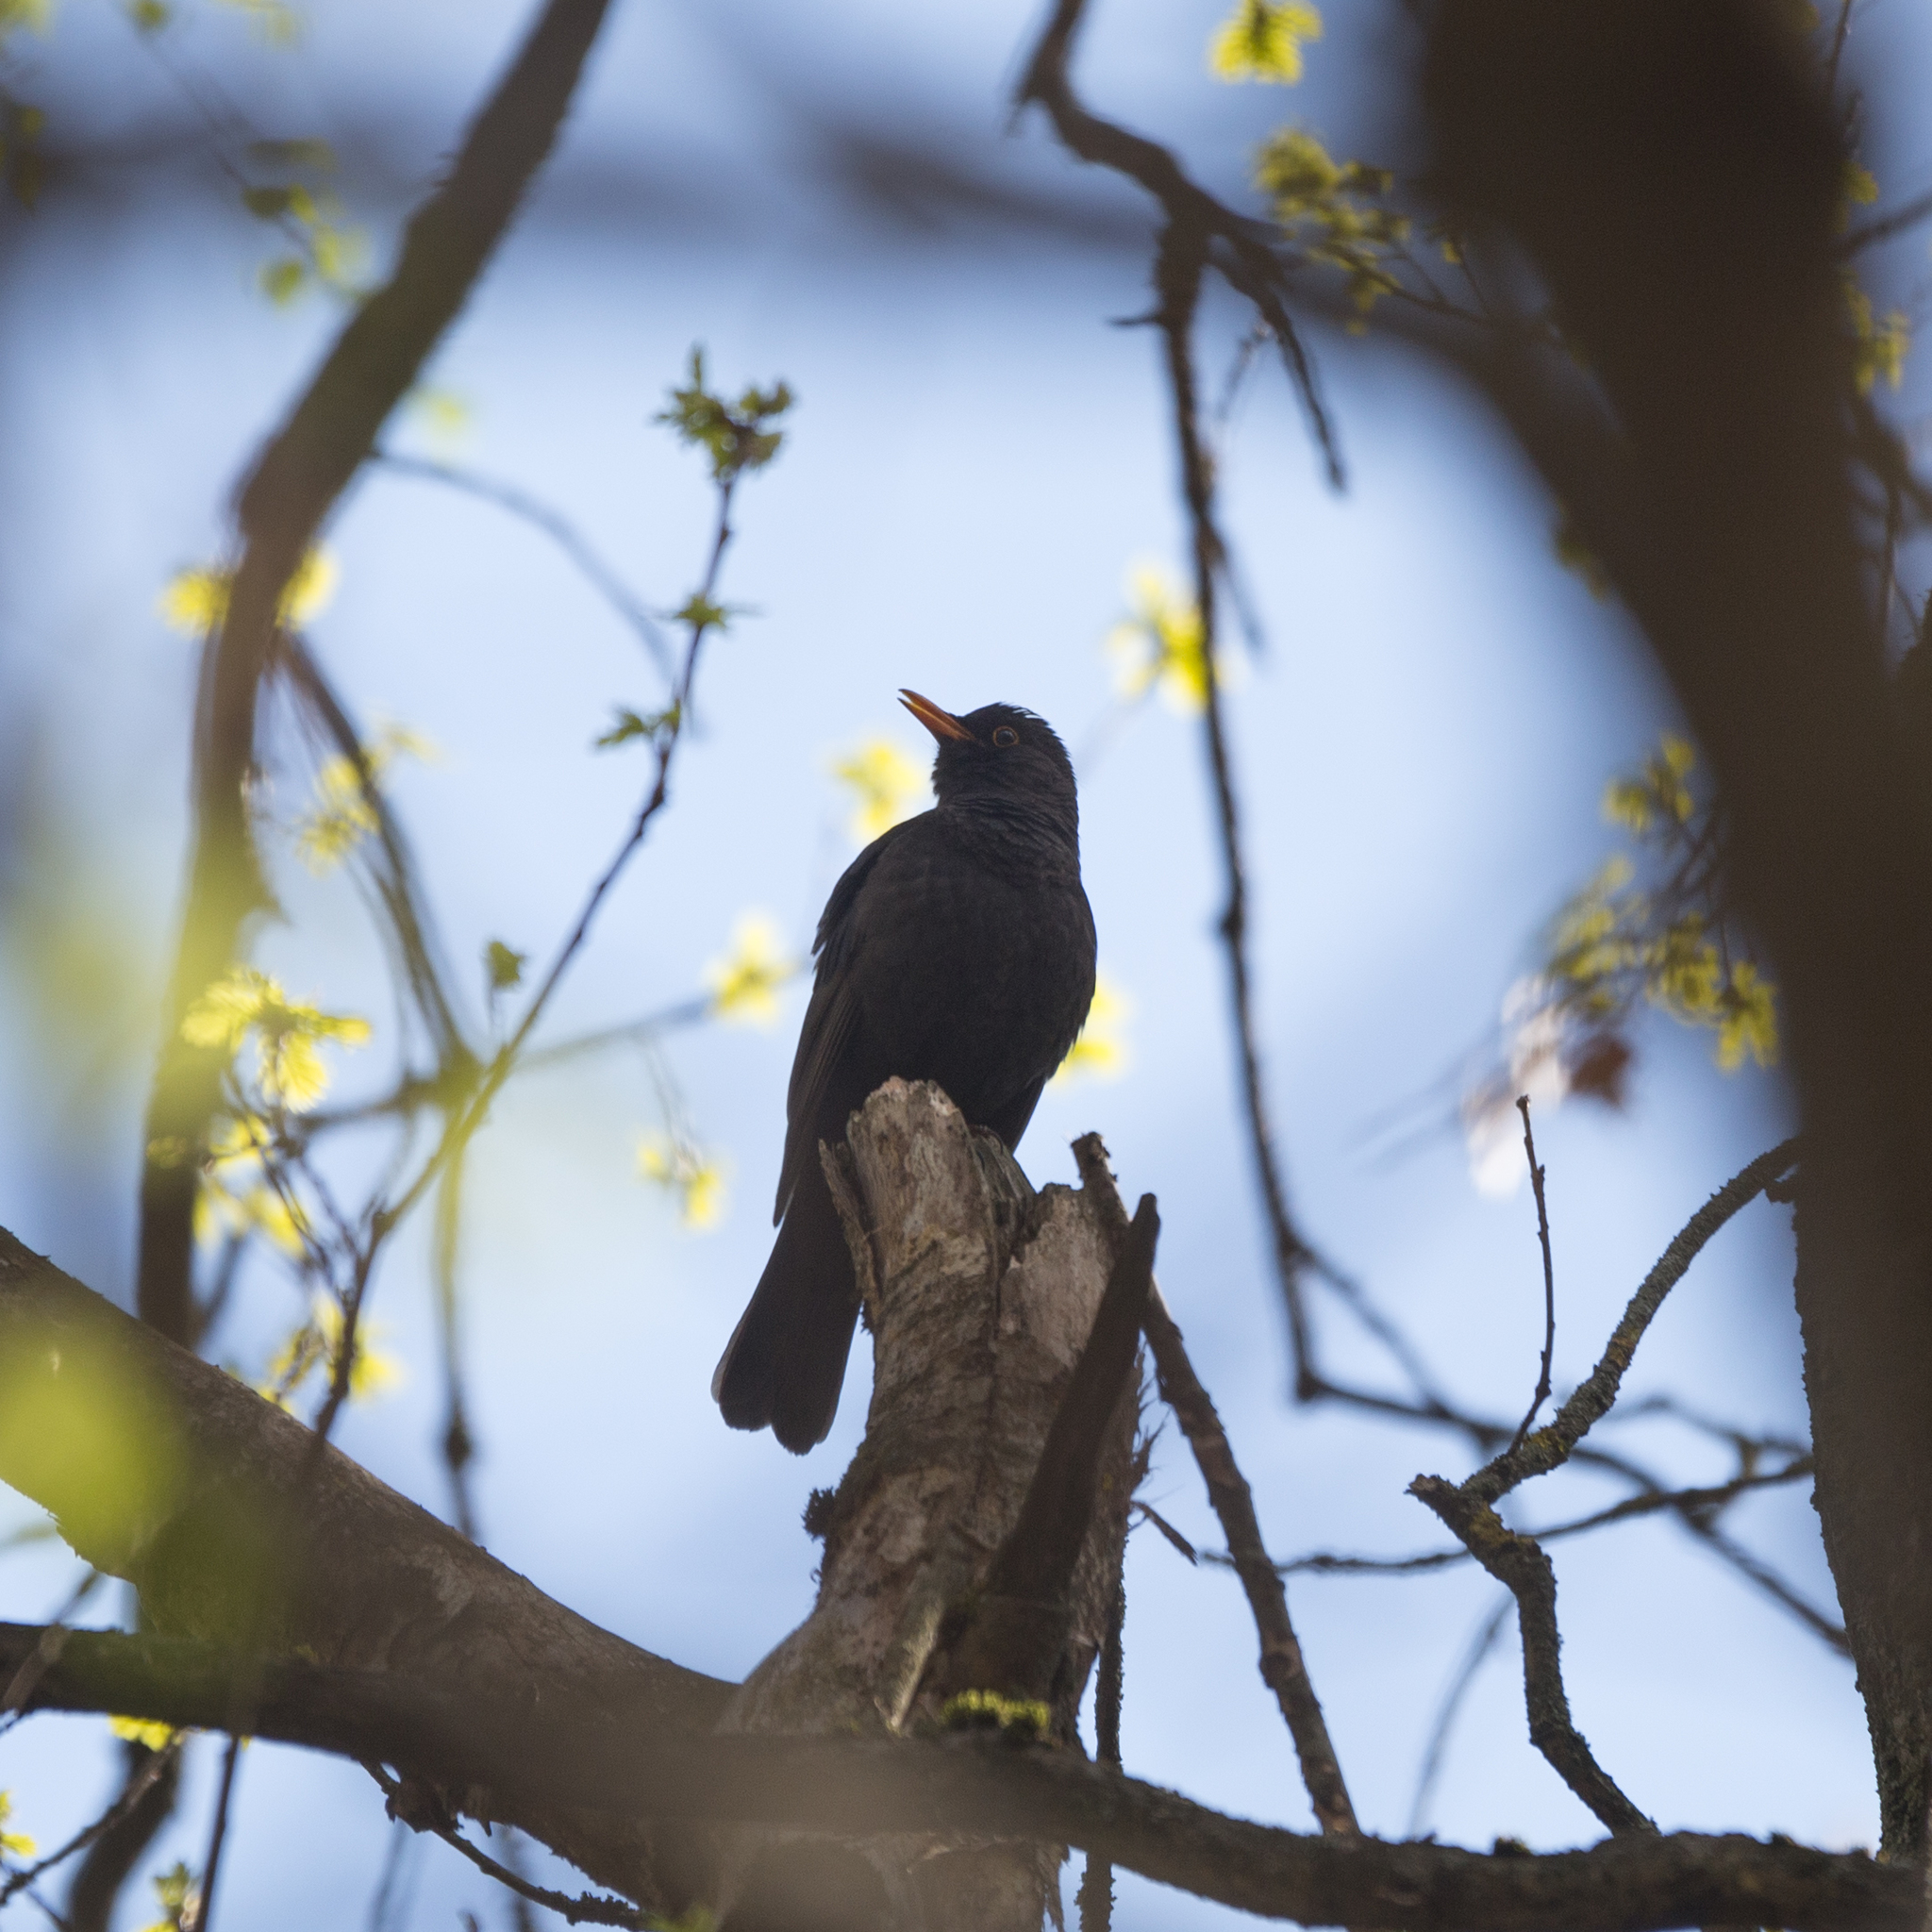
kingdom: Animalia
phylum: Chordata
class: Aves
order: Passeriformes
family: Turdidae
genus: Turdus
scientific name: Turdus merula
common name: Common blackbird
